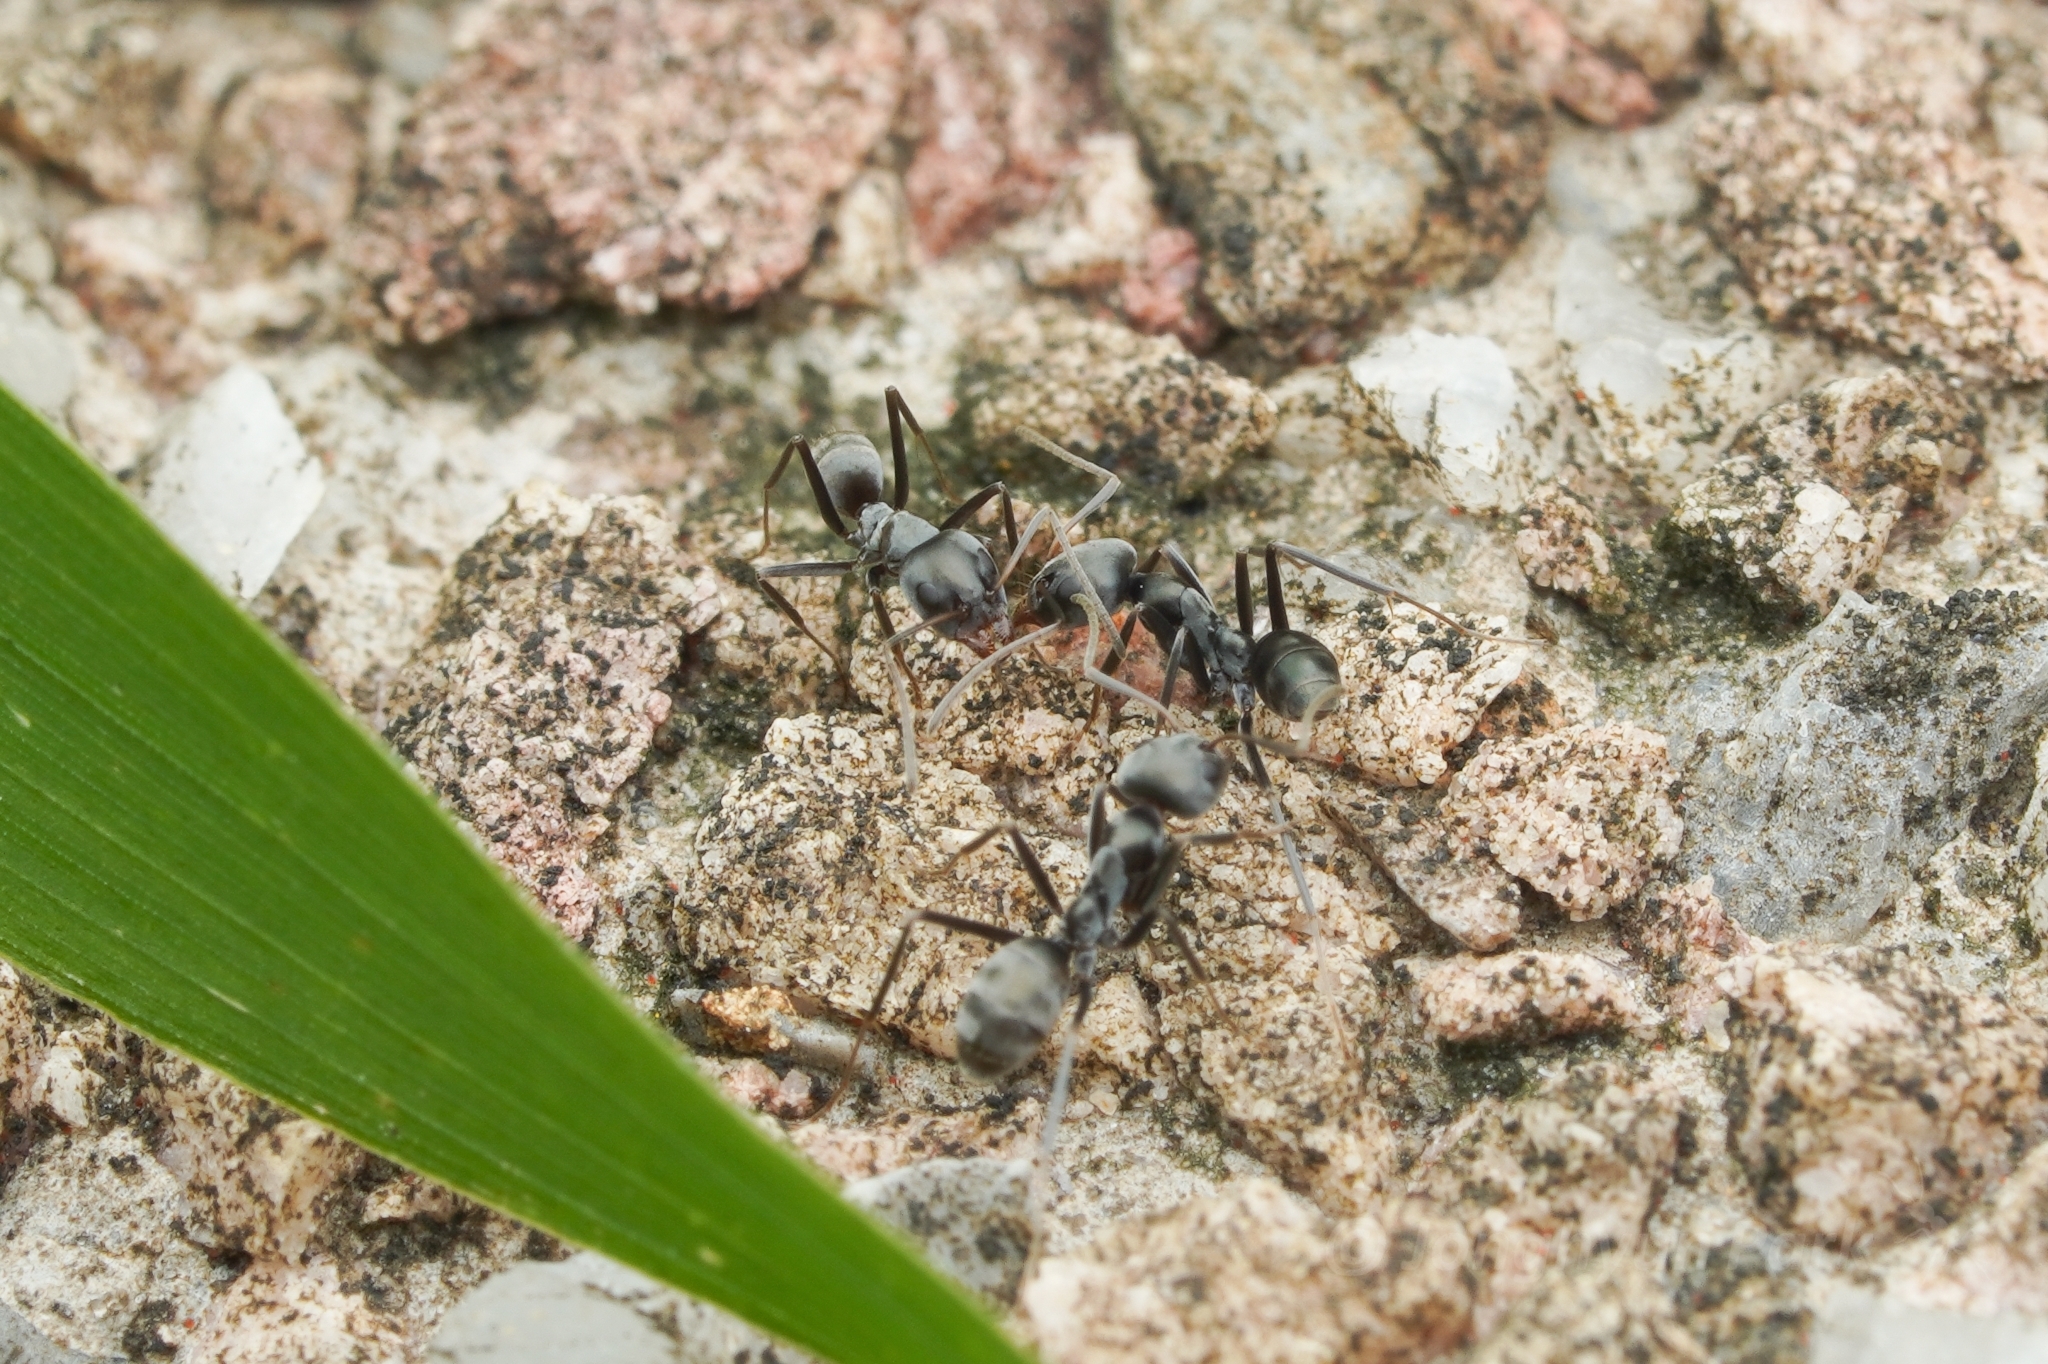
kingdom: Animalia
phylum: Arthropoda
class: Insecta
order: Hymenoptera
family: Formicidae
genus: Iridomyrmex
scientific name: Iridomyrmex anceps
